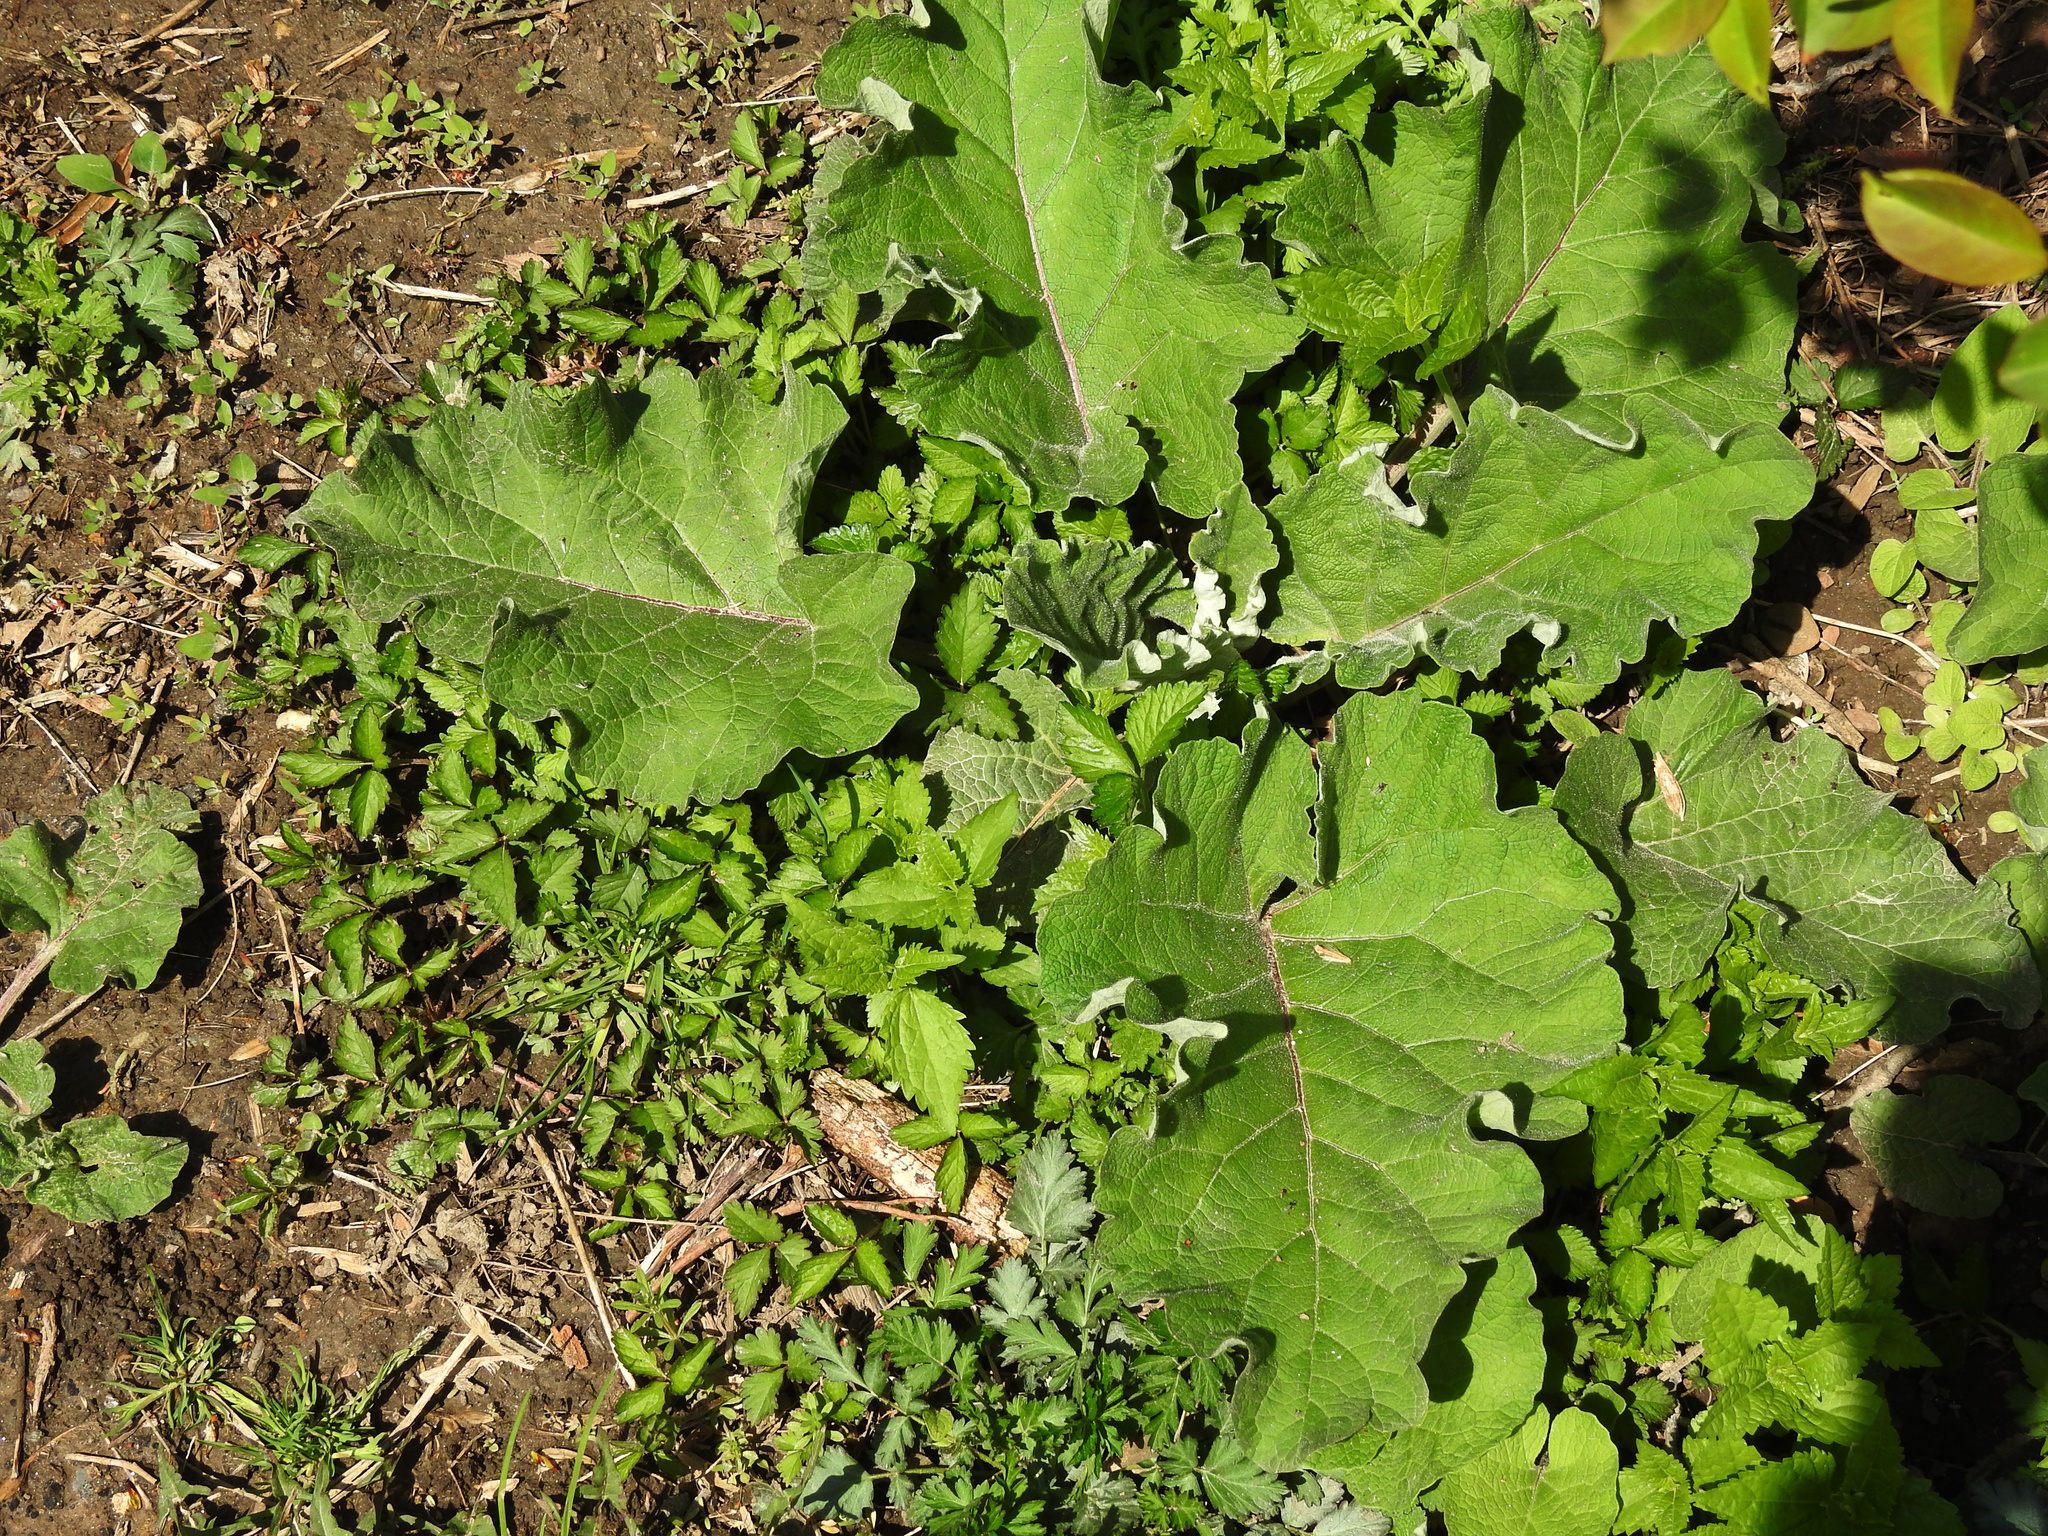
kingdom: Plantae
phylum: Tracheophyta
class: Magnoliopsida
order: Asterales
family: Asteraceae
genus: Arctium
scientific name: Arctium
